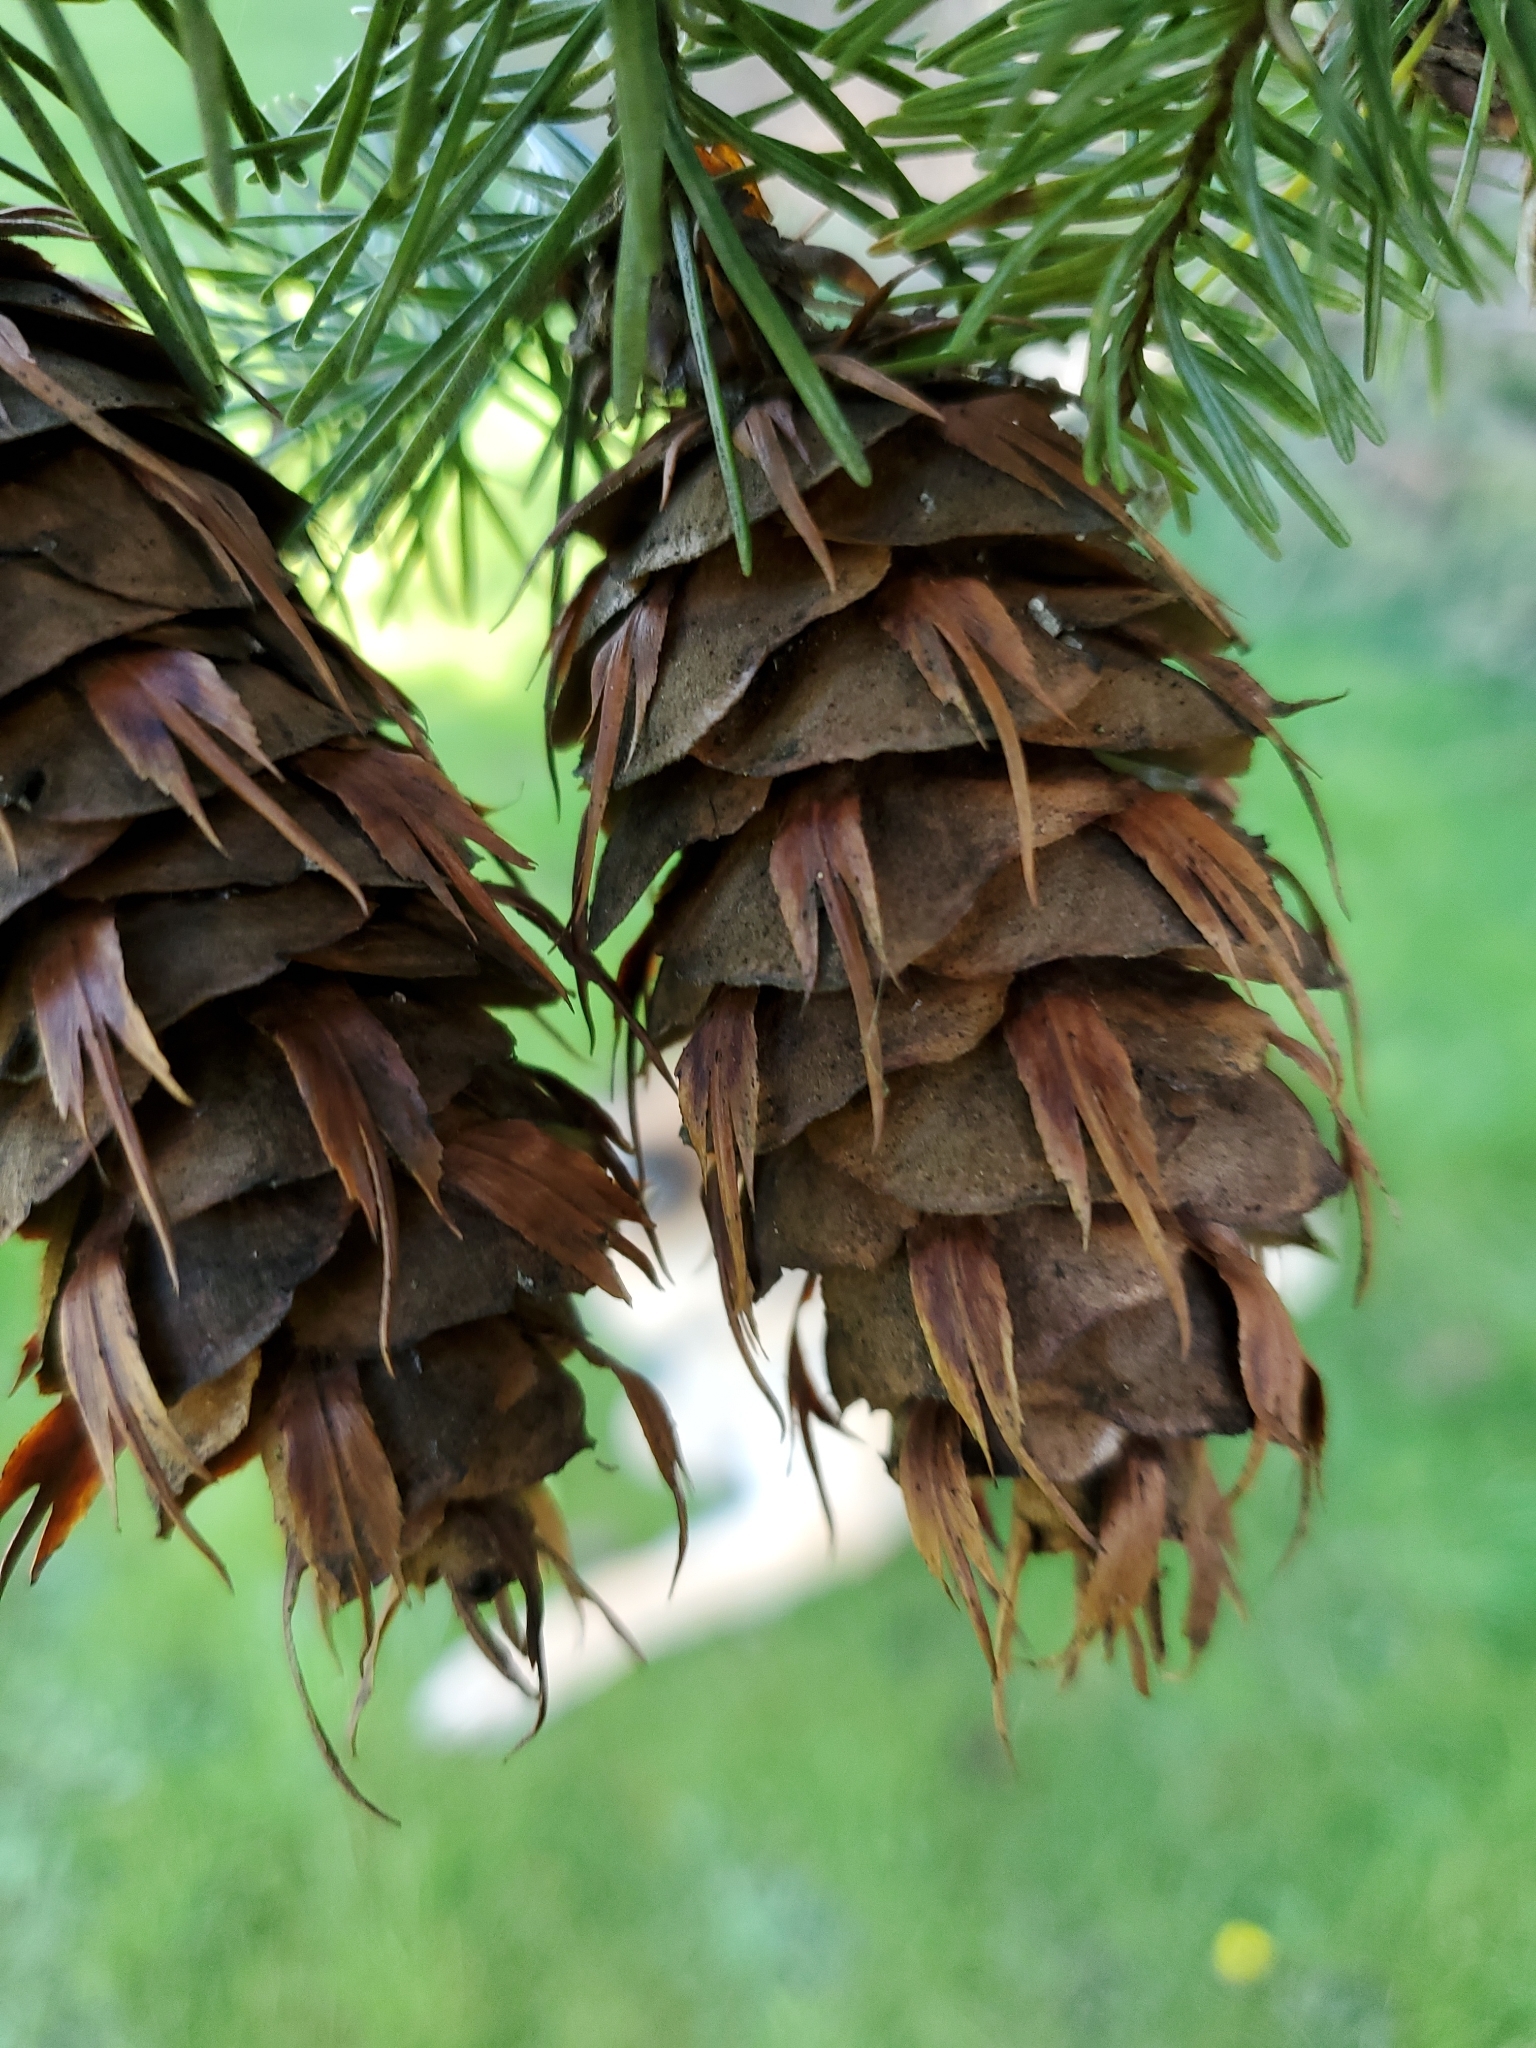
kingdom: Plantae
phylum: Tracheophyta
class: Pinopsida
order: Pinales
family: Pinaceae
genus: Pseudotsuga
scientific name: Pseudotsuga menziesii
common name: Douglas fir
